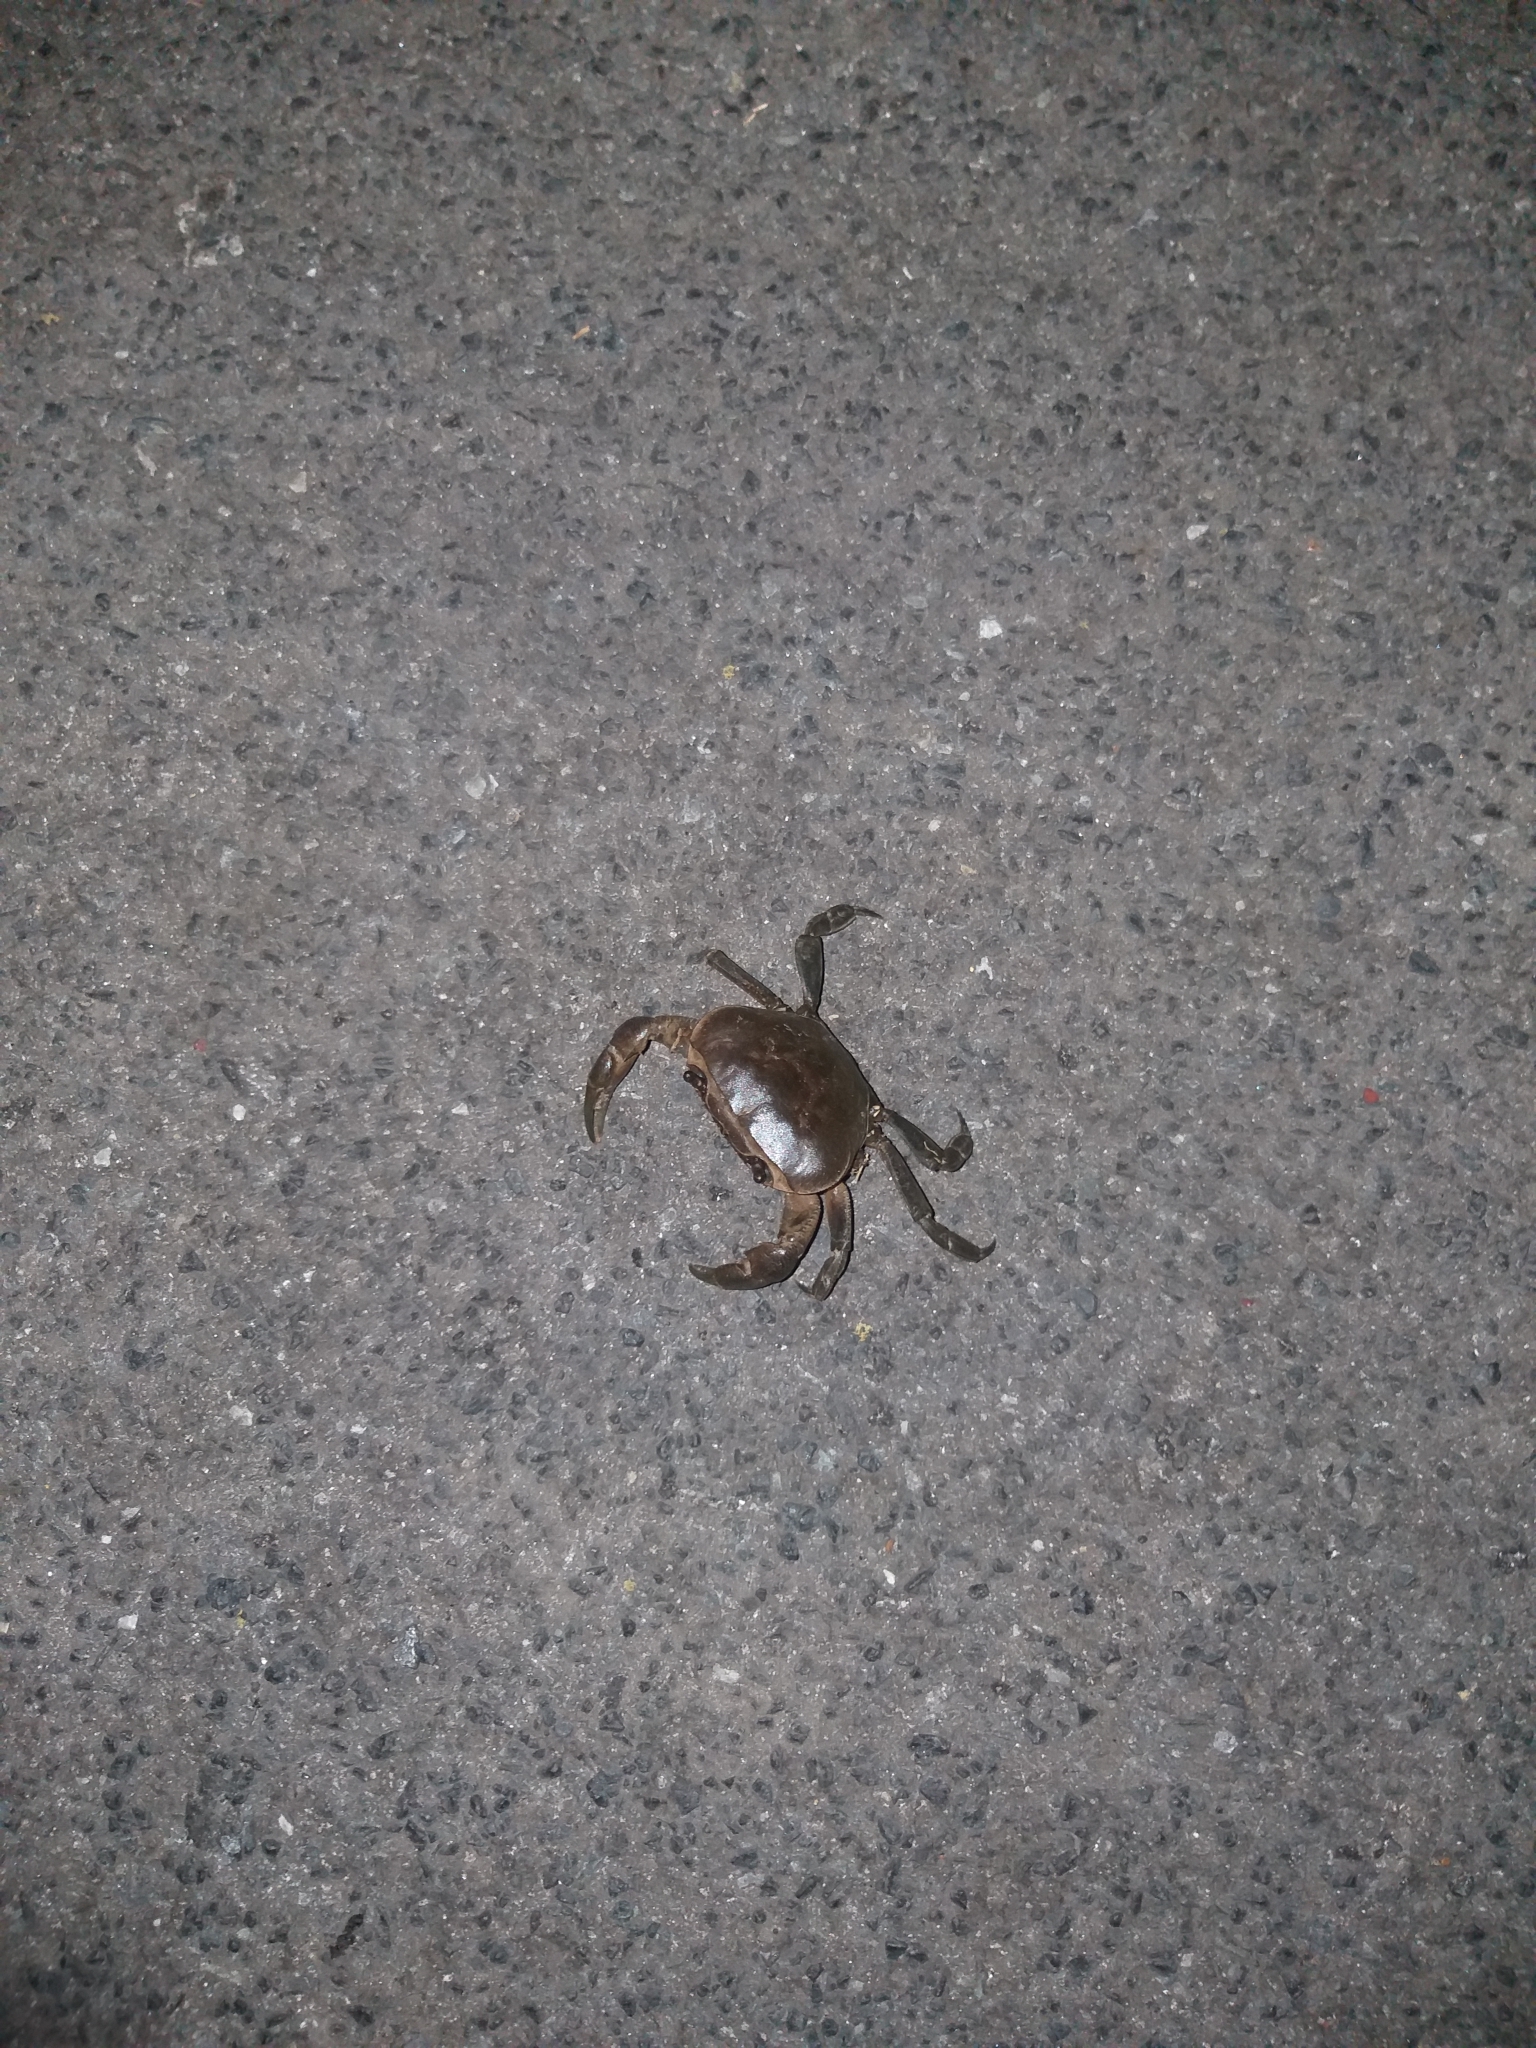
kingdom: Animalia
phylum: Arthropoda
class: Malacostraca
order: Decapoda
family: Potamonautidae
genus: Potamonautes
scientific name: Potamonautes perlatus
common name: Cape river crab
